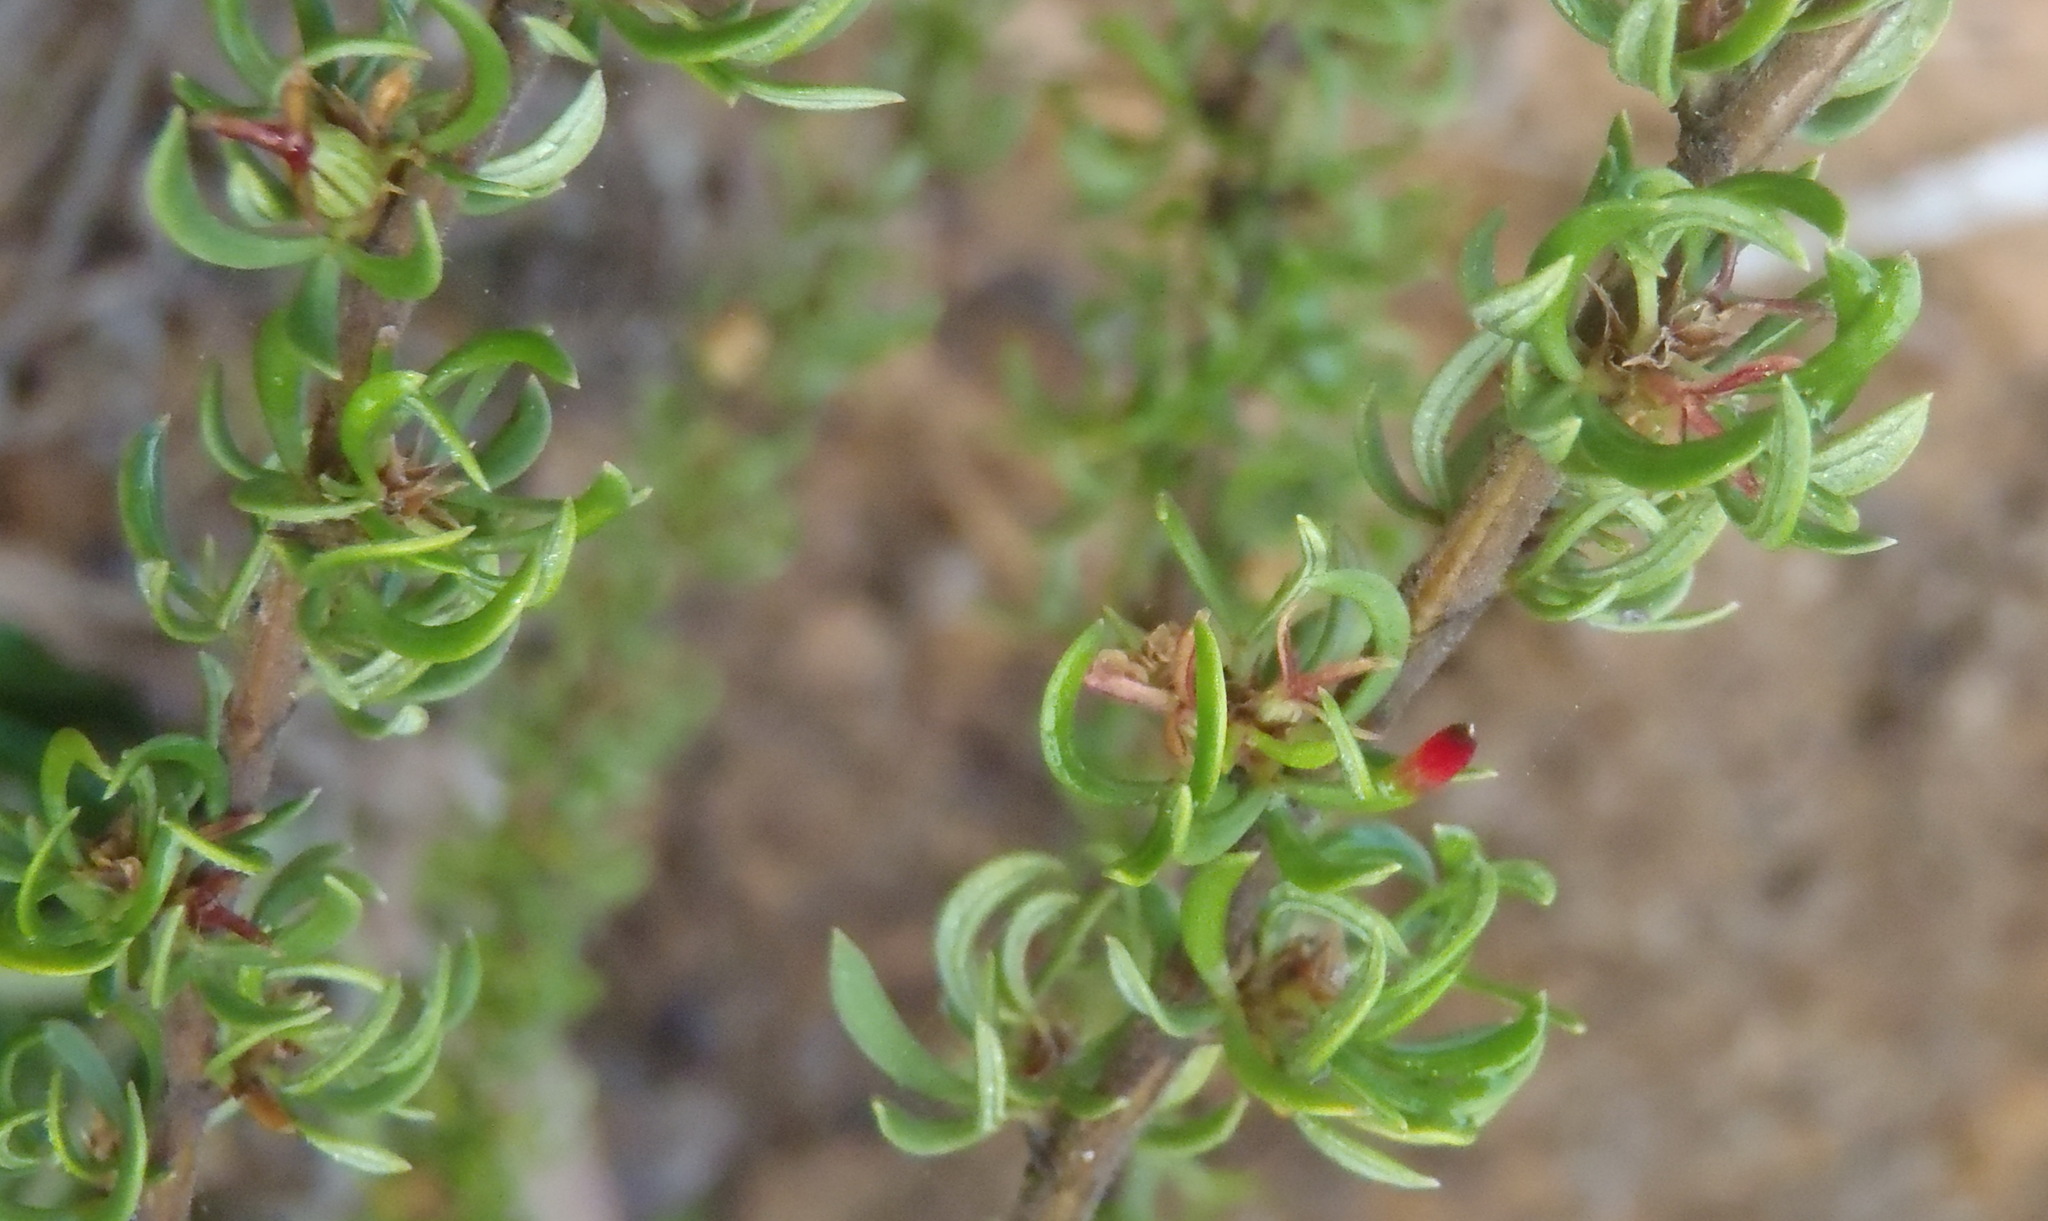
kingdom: Plantae
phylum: Tracheophyta
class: Magnoliopsida
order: Rosales
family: Rosaceae
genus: Cliffortia
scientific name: Cliffortia falcata
